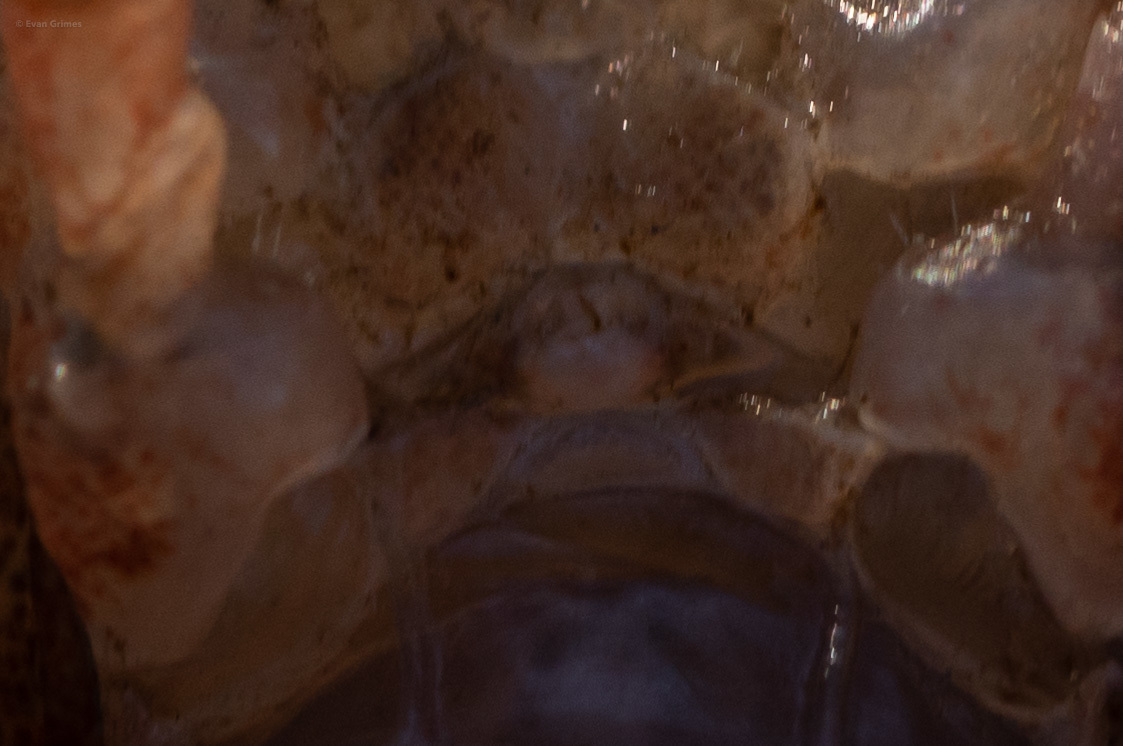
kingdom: Animalia
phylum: Arthropoda
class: Malacostraca
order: Decapoda
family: Cambaridae
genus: Procambarus
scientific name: Procambarus vioscai
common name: Percy's creek crayfish
